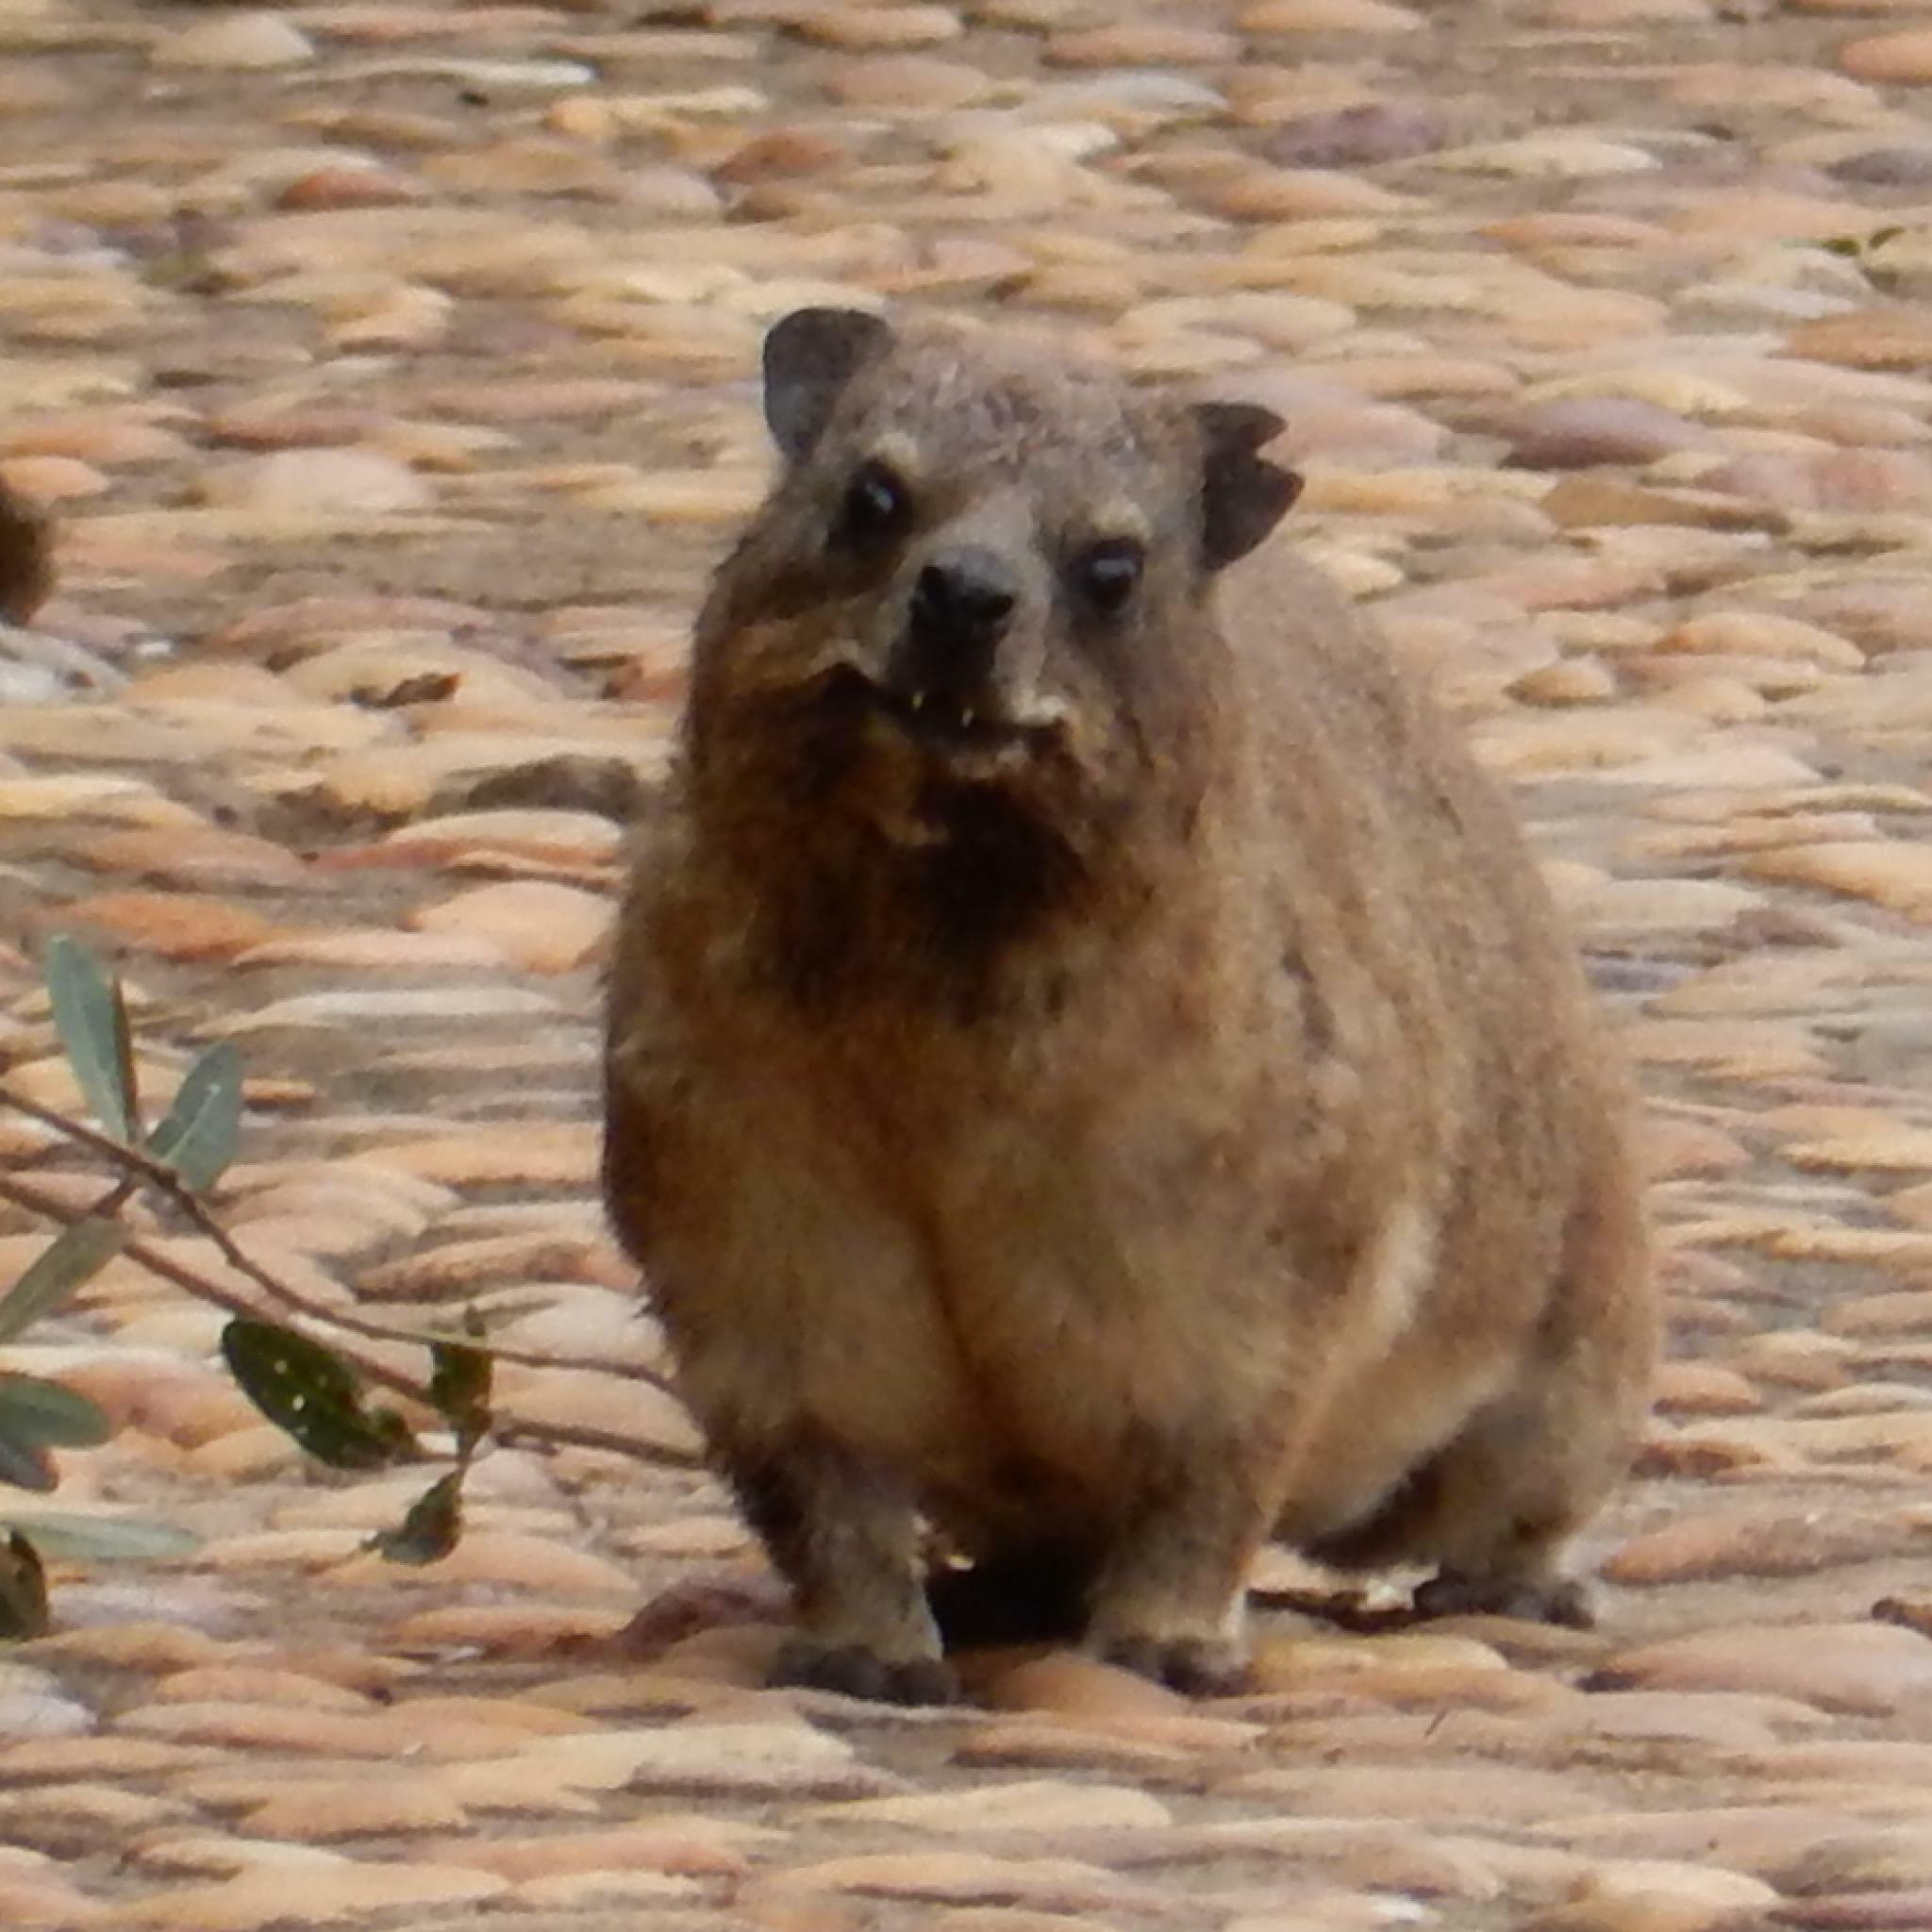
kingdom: Animalia
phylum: Chordata
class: Mammalia
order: Hyracoidea
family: Procaviidae
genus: Procavia
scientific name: Procavia capensis
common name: Rock hyrax
